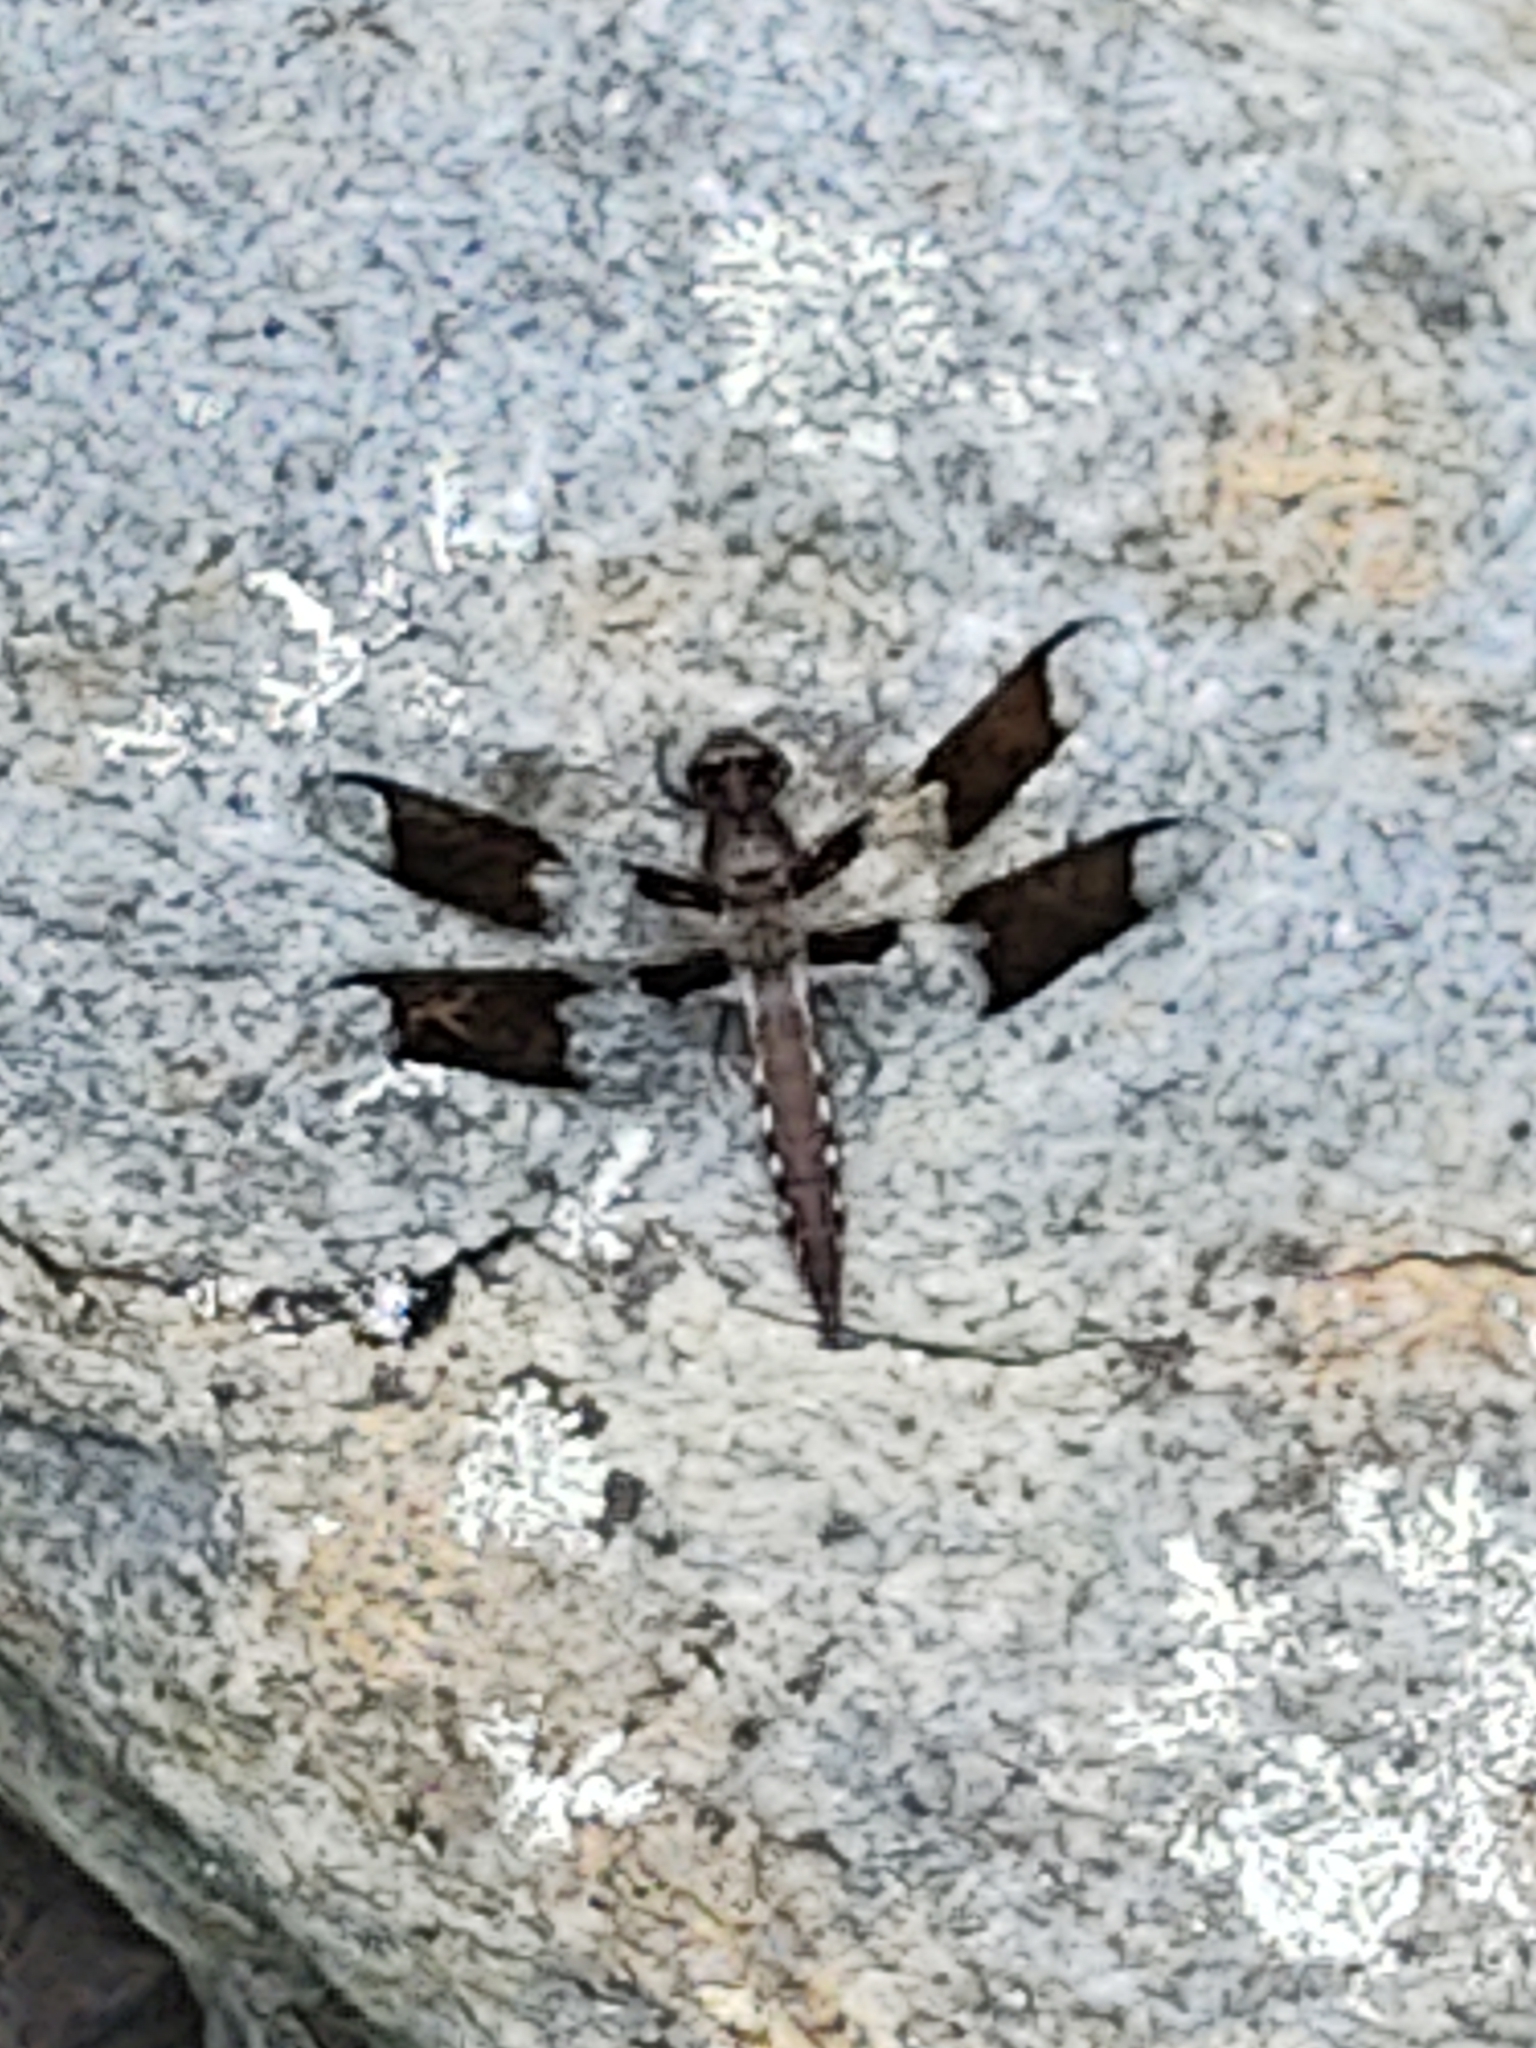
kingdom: Animalia
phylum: Arthropoda
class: Insecta
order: Odonata
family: Libellulidae
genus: Plathemis
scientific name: Plathemis lydia
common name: Common whitetail
